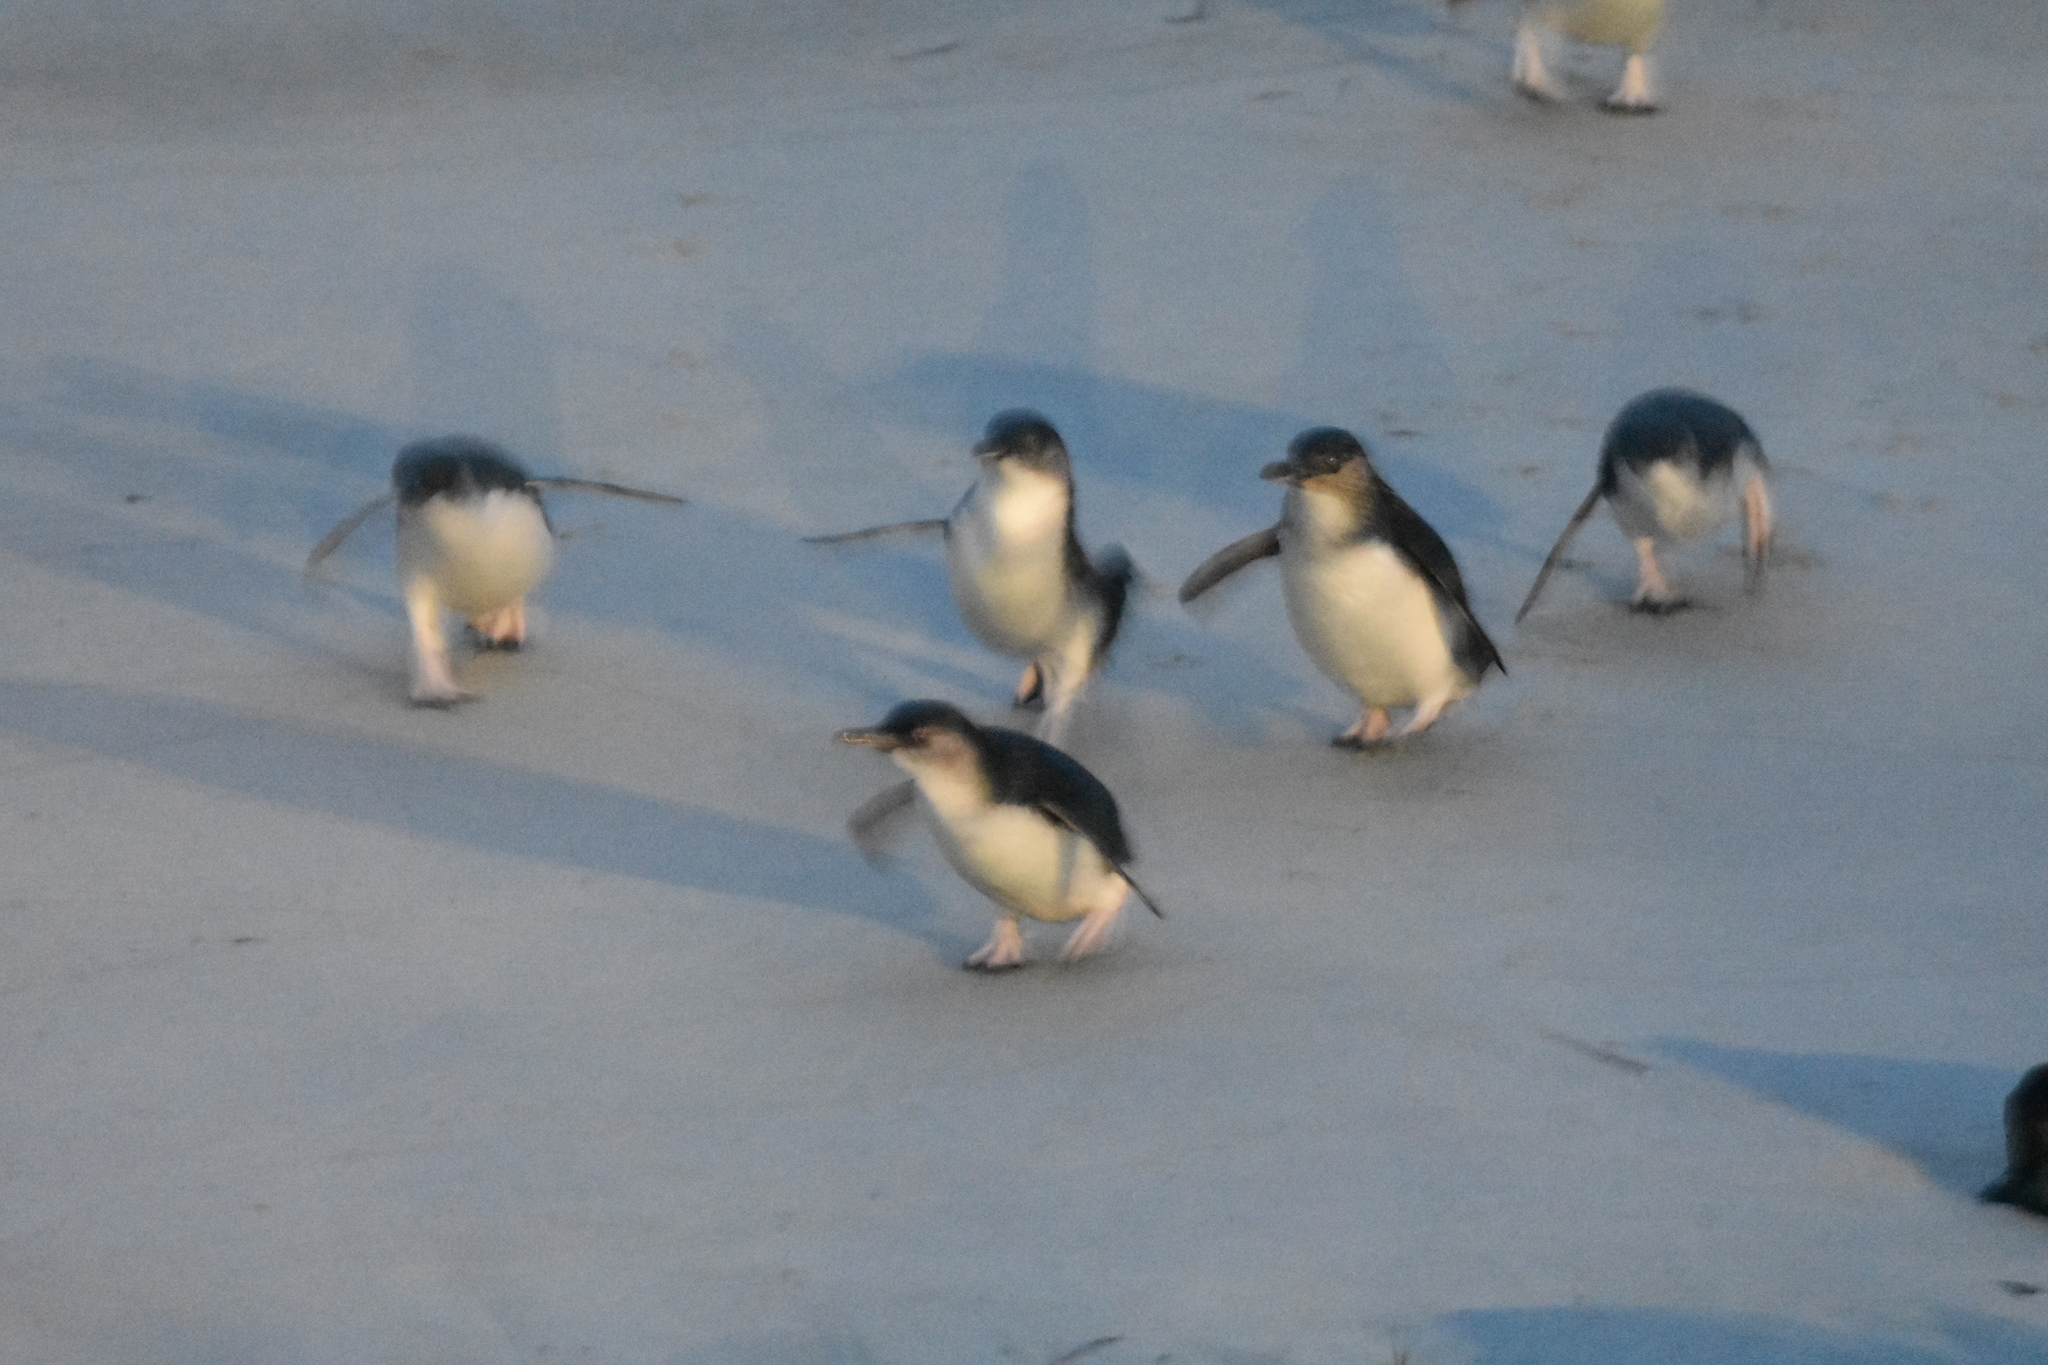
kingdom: Animalia
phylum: Chordata
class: Aves
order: Sphenisciformes
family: Spheniscidae
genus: Eudyptula
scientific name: Eudyptula minor
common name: Little penguin
